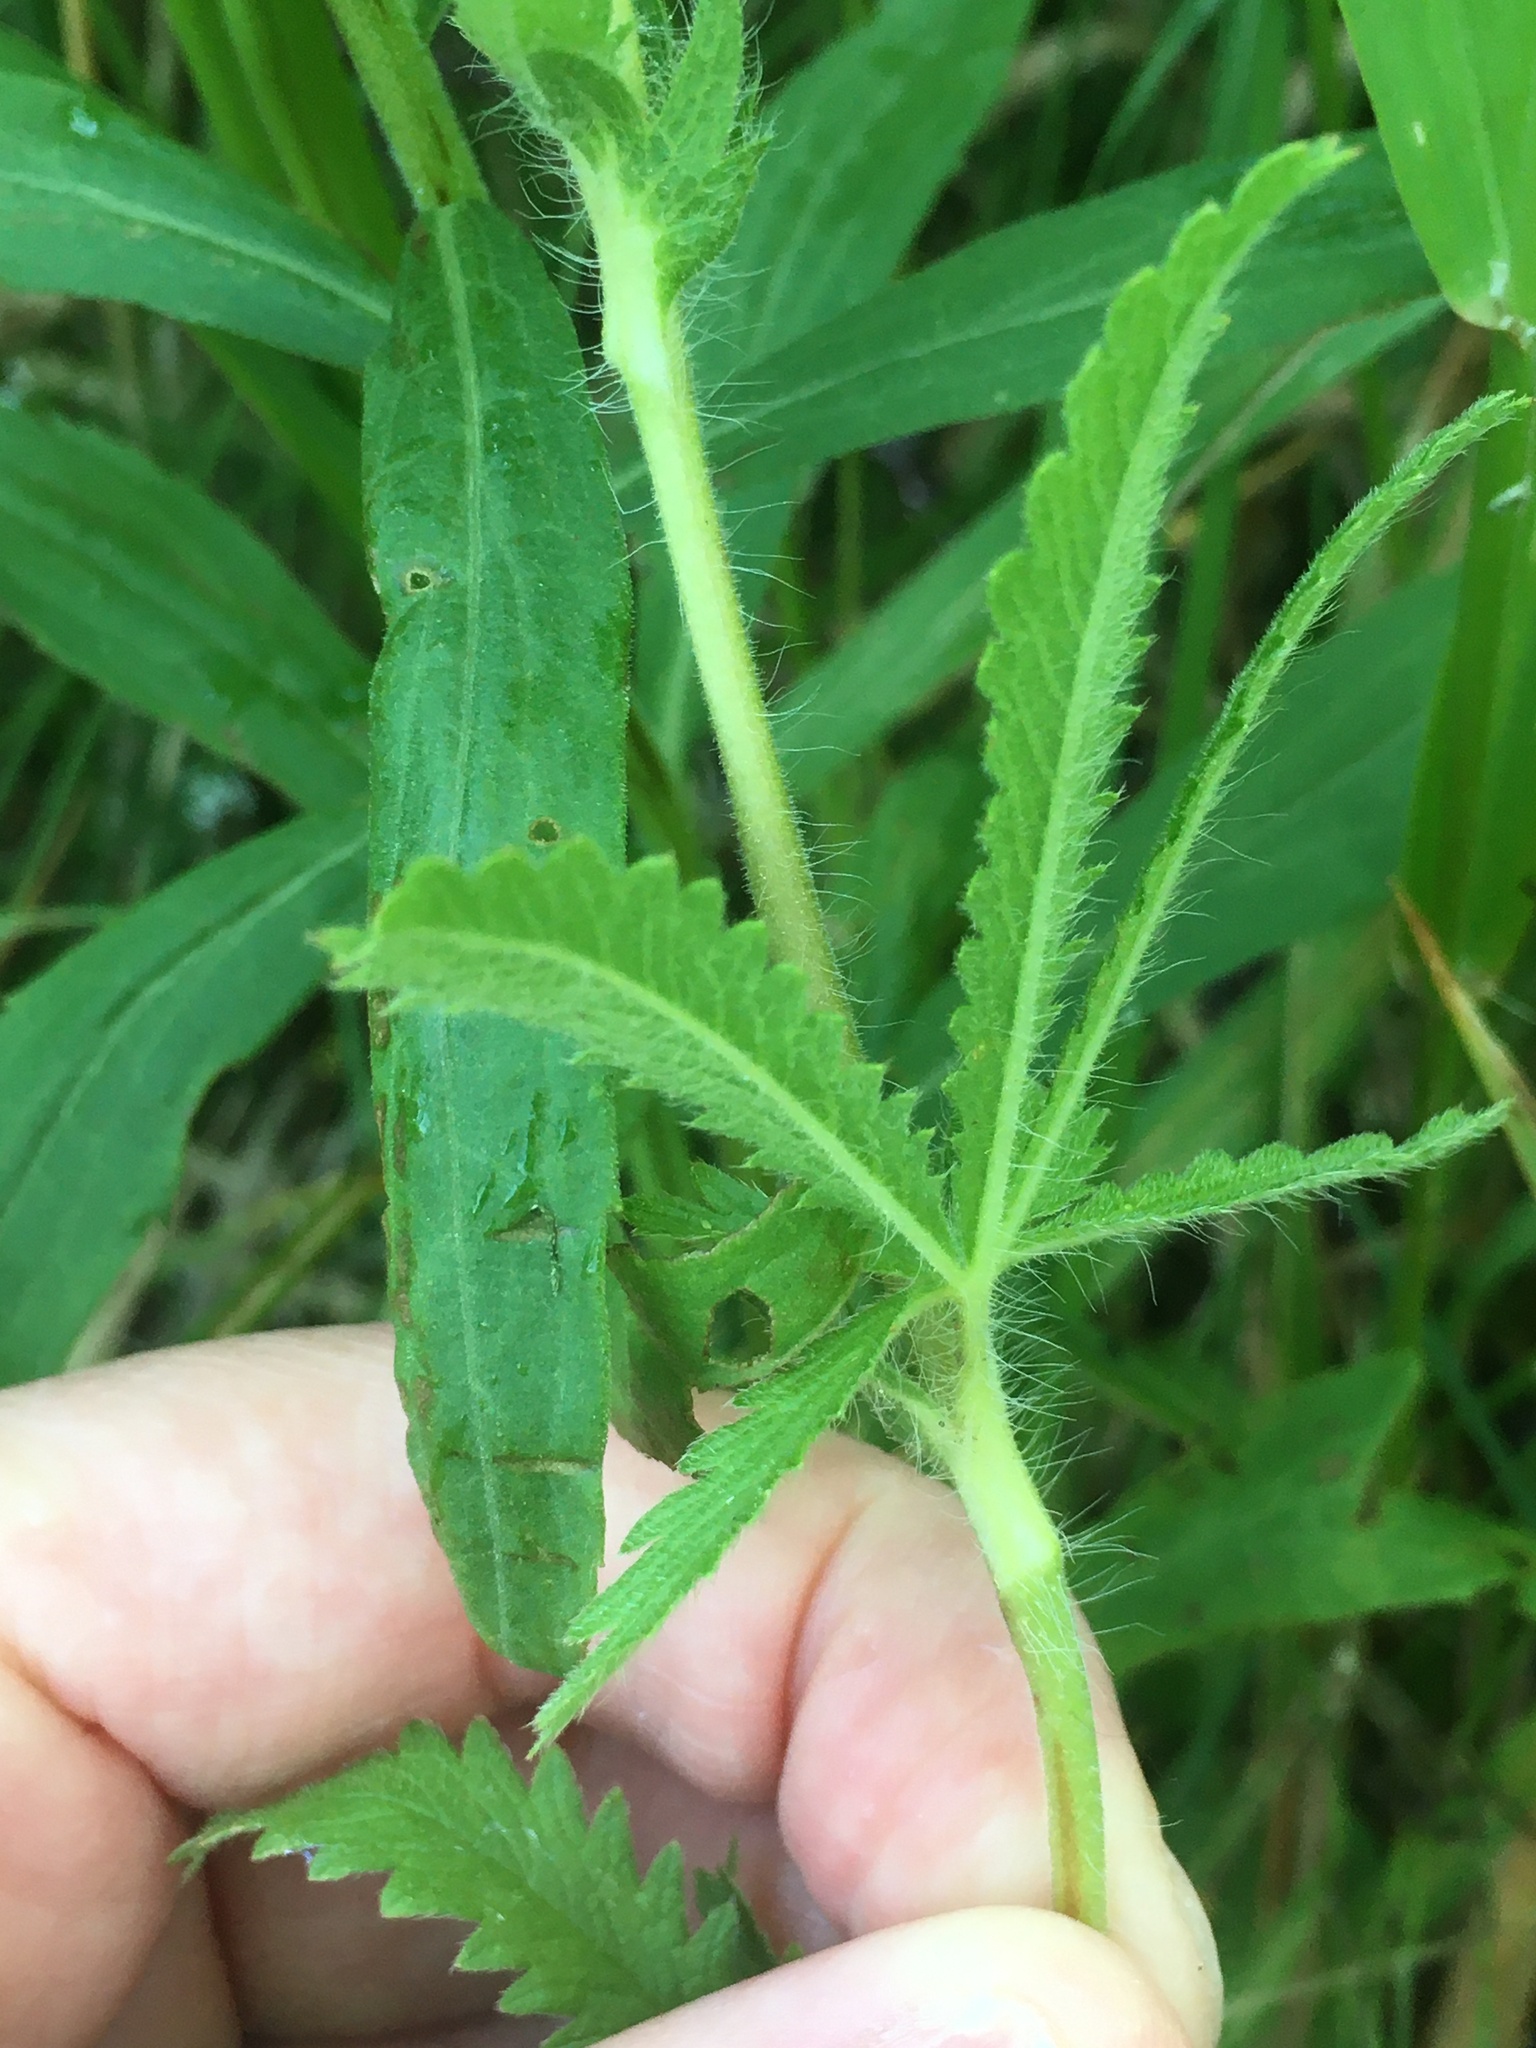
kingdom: Plantae
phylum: Tracheophyta
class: Magnoliopsida
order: Rosales
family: Rosaceae
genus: Potentilla
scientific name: Potentilla recta
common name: Sulphur cinquefoil
